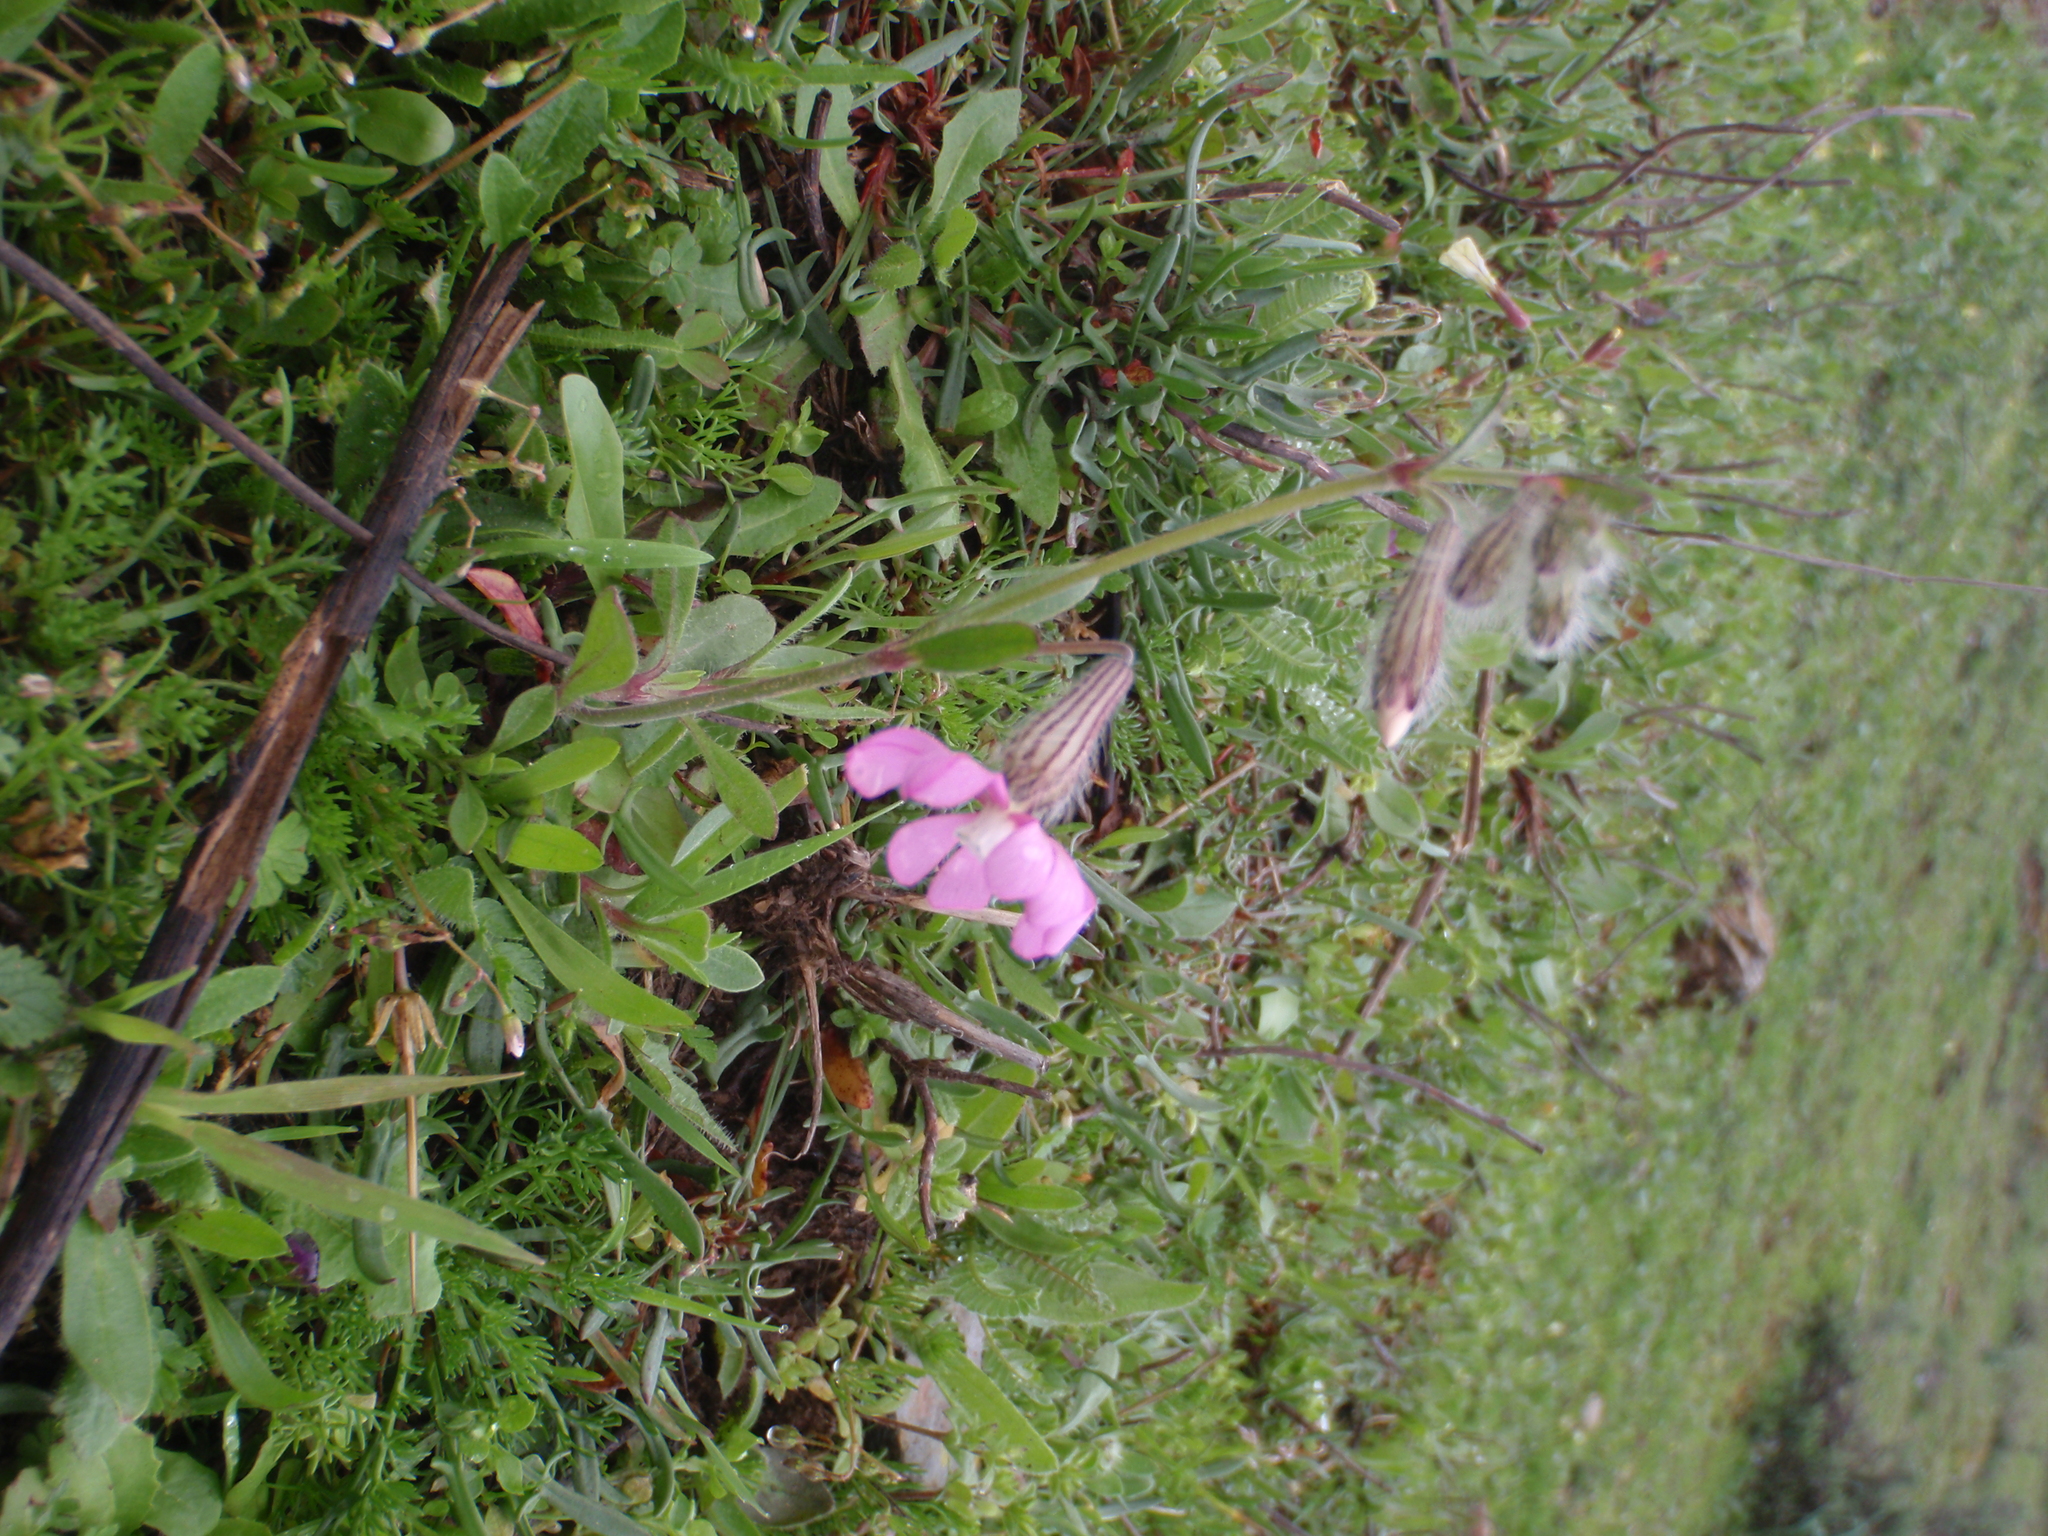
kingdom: Plantae
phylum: Tracheophyta
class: Magnoliopsida
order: Caryophyllales
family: Caryophyllaceae
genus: Silene
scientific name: Silene colorata
